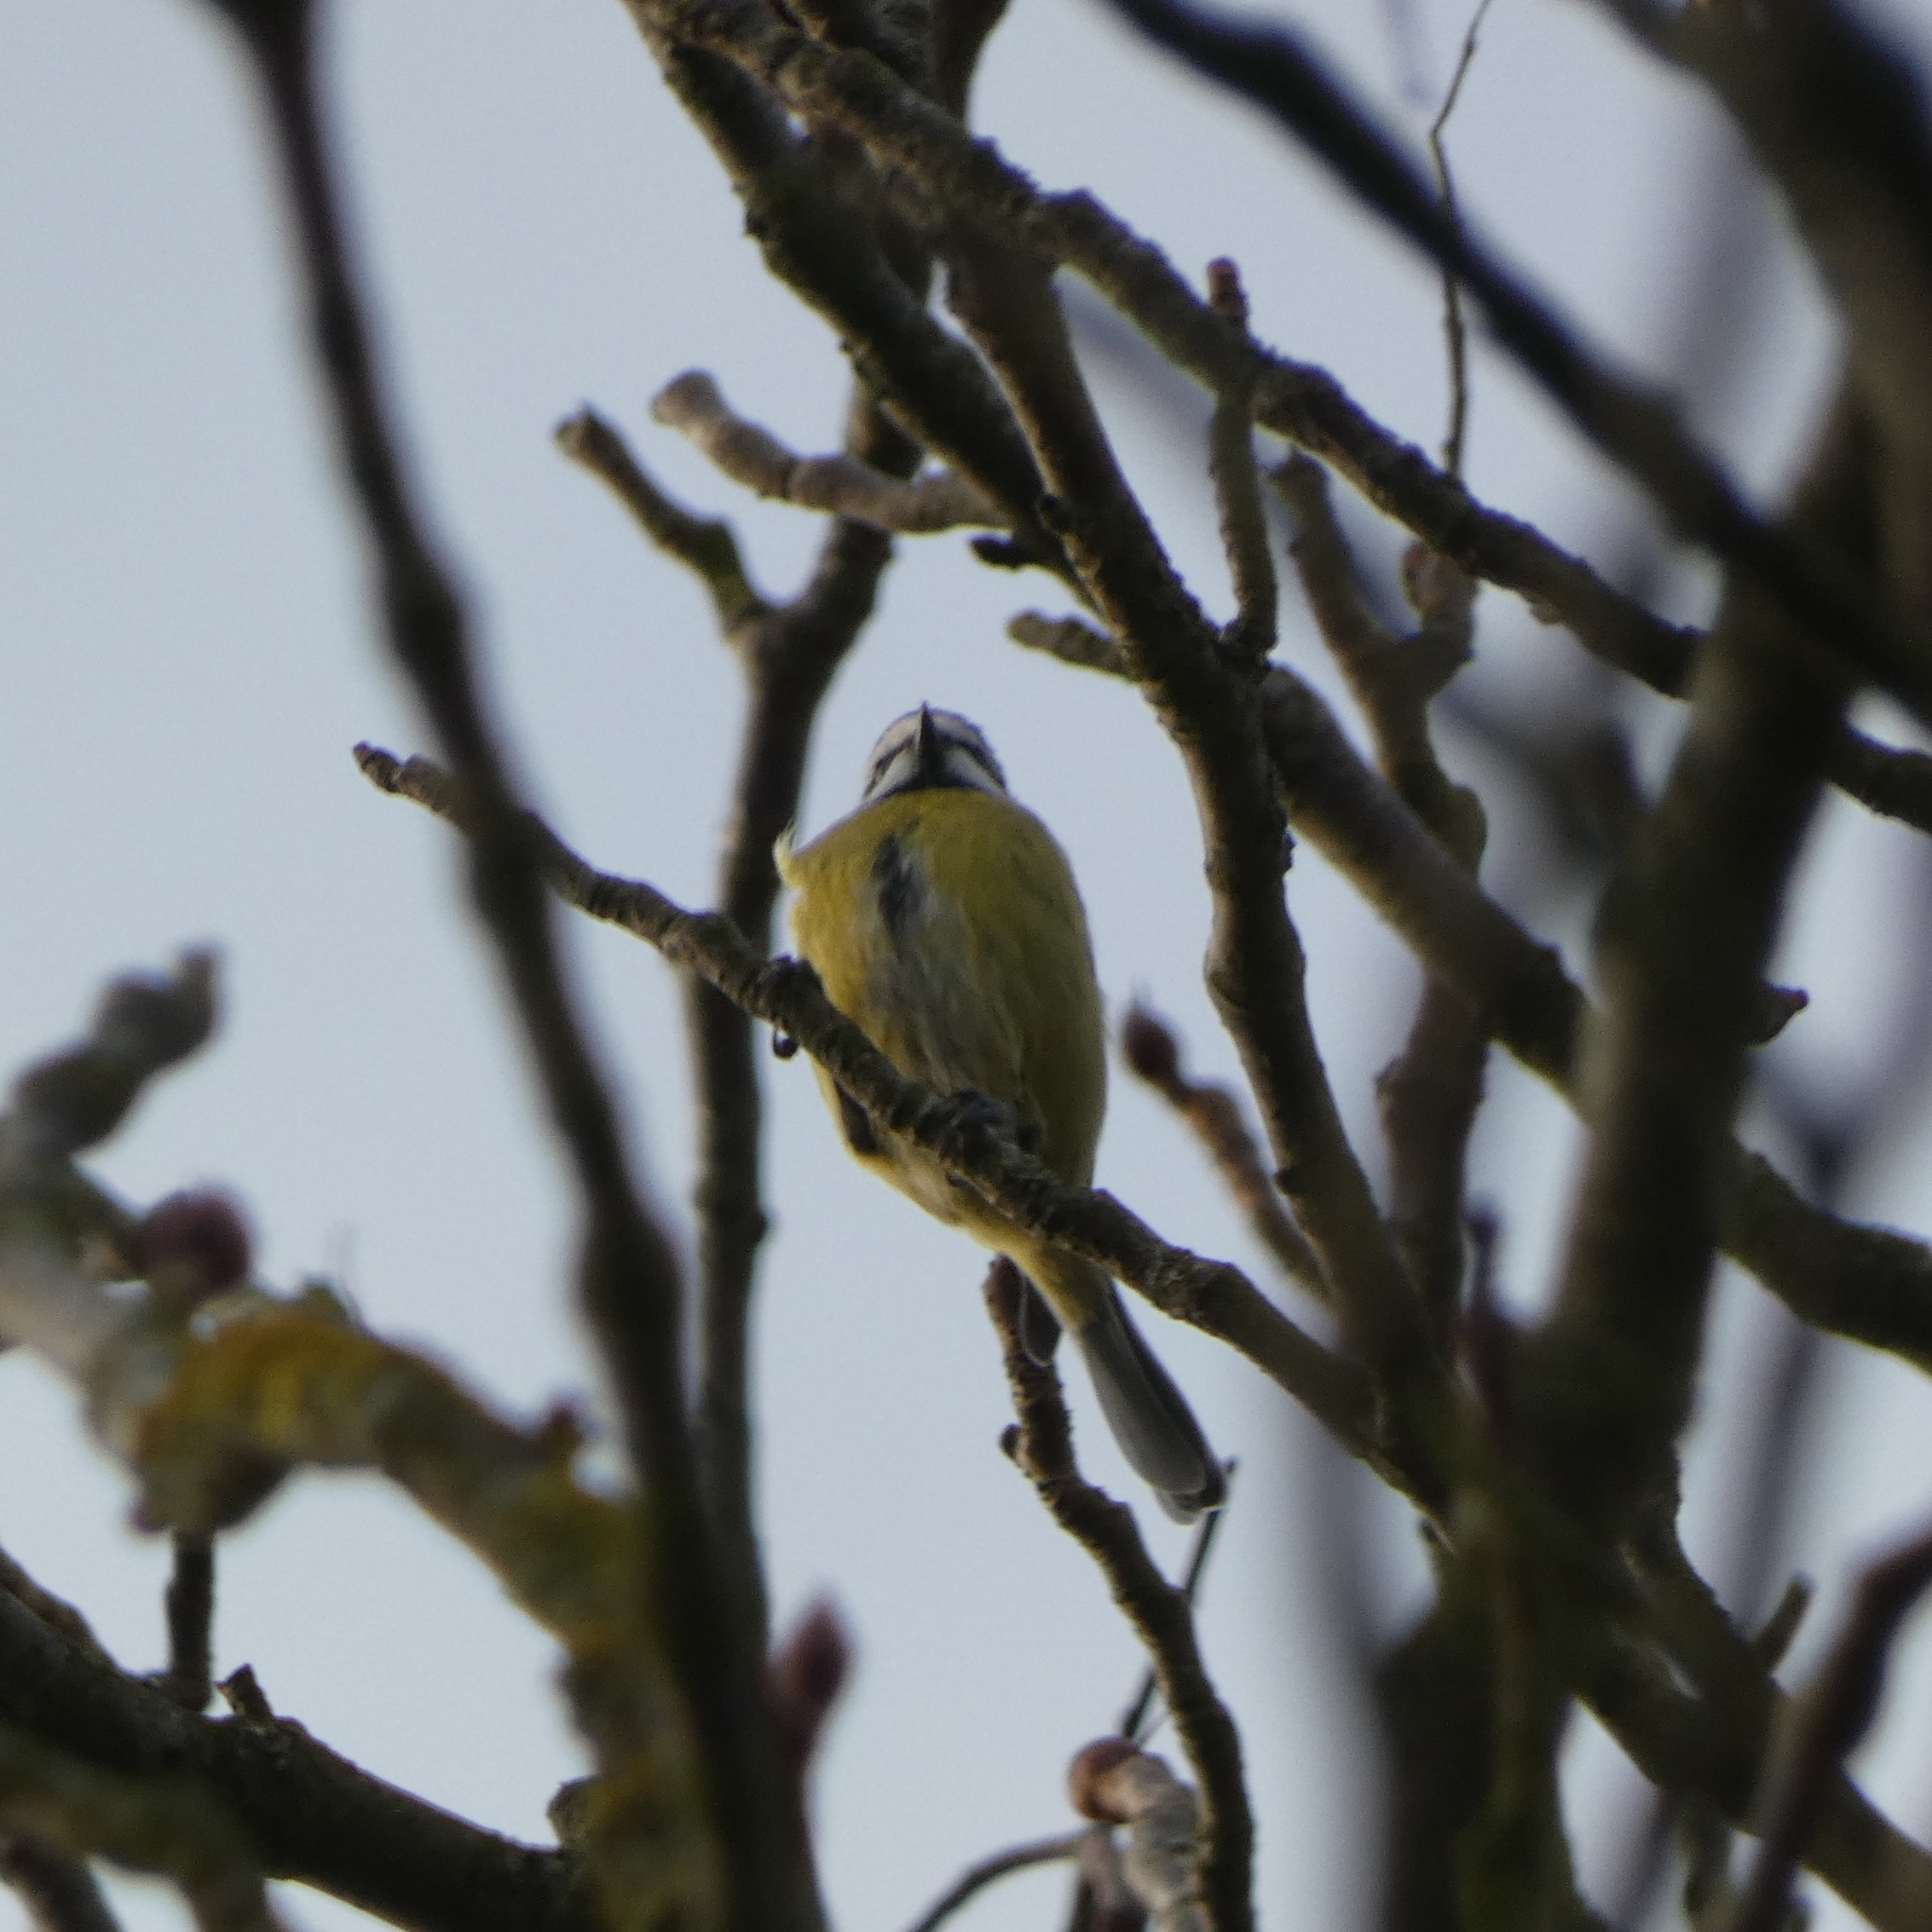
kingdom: Animalia
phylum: Chordata
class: Aves
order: Passeriformes
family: Paridae
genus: Cyanistes
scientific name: Cyanistes caeruleus
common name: Eurasian blue tit
